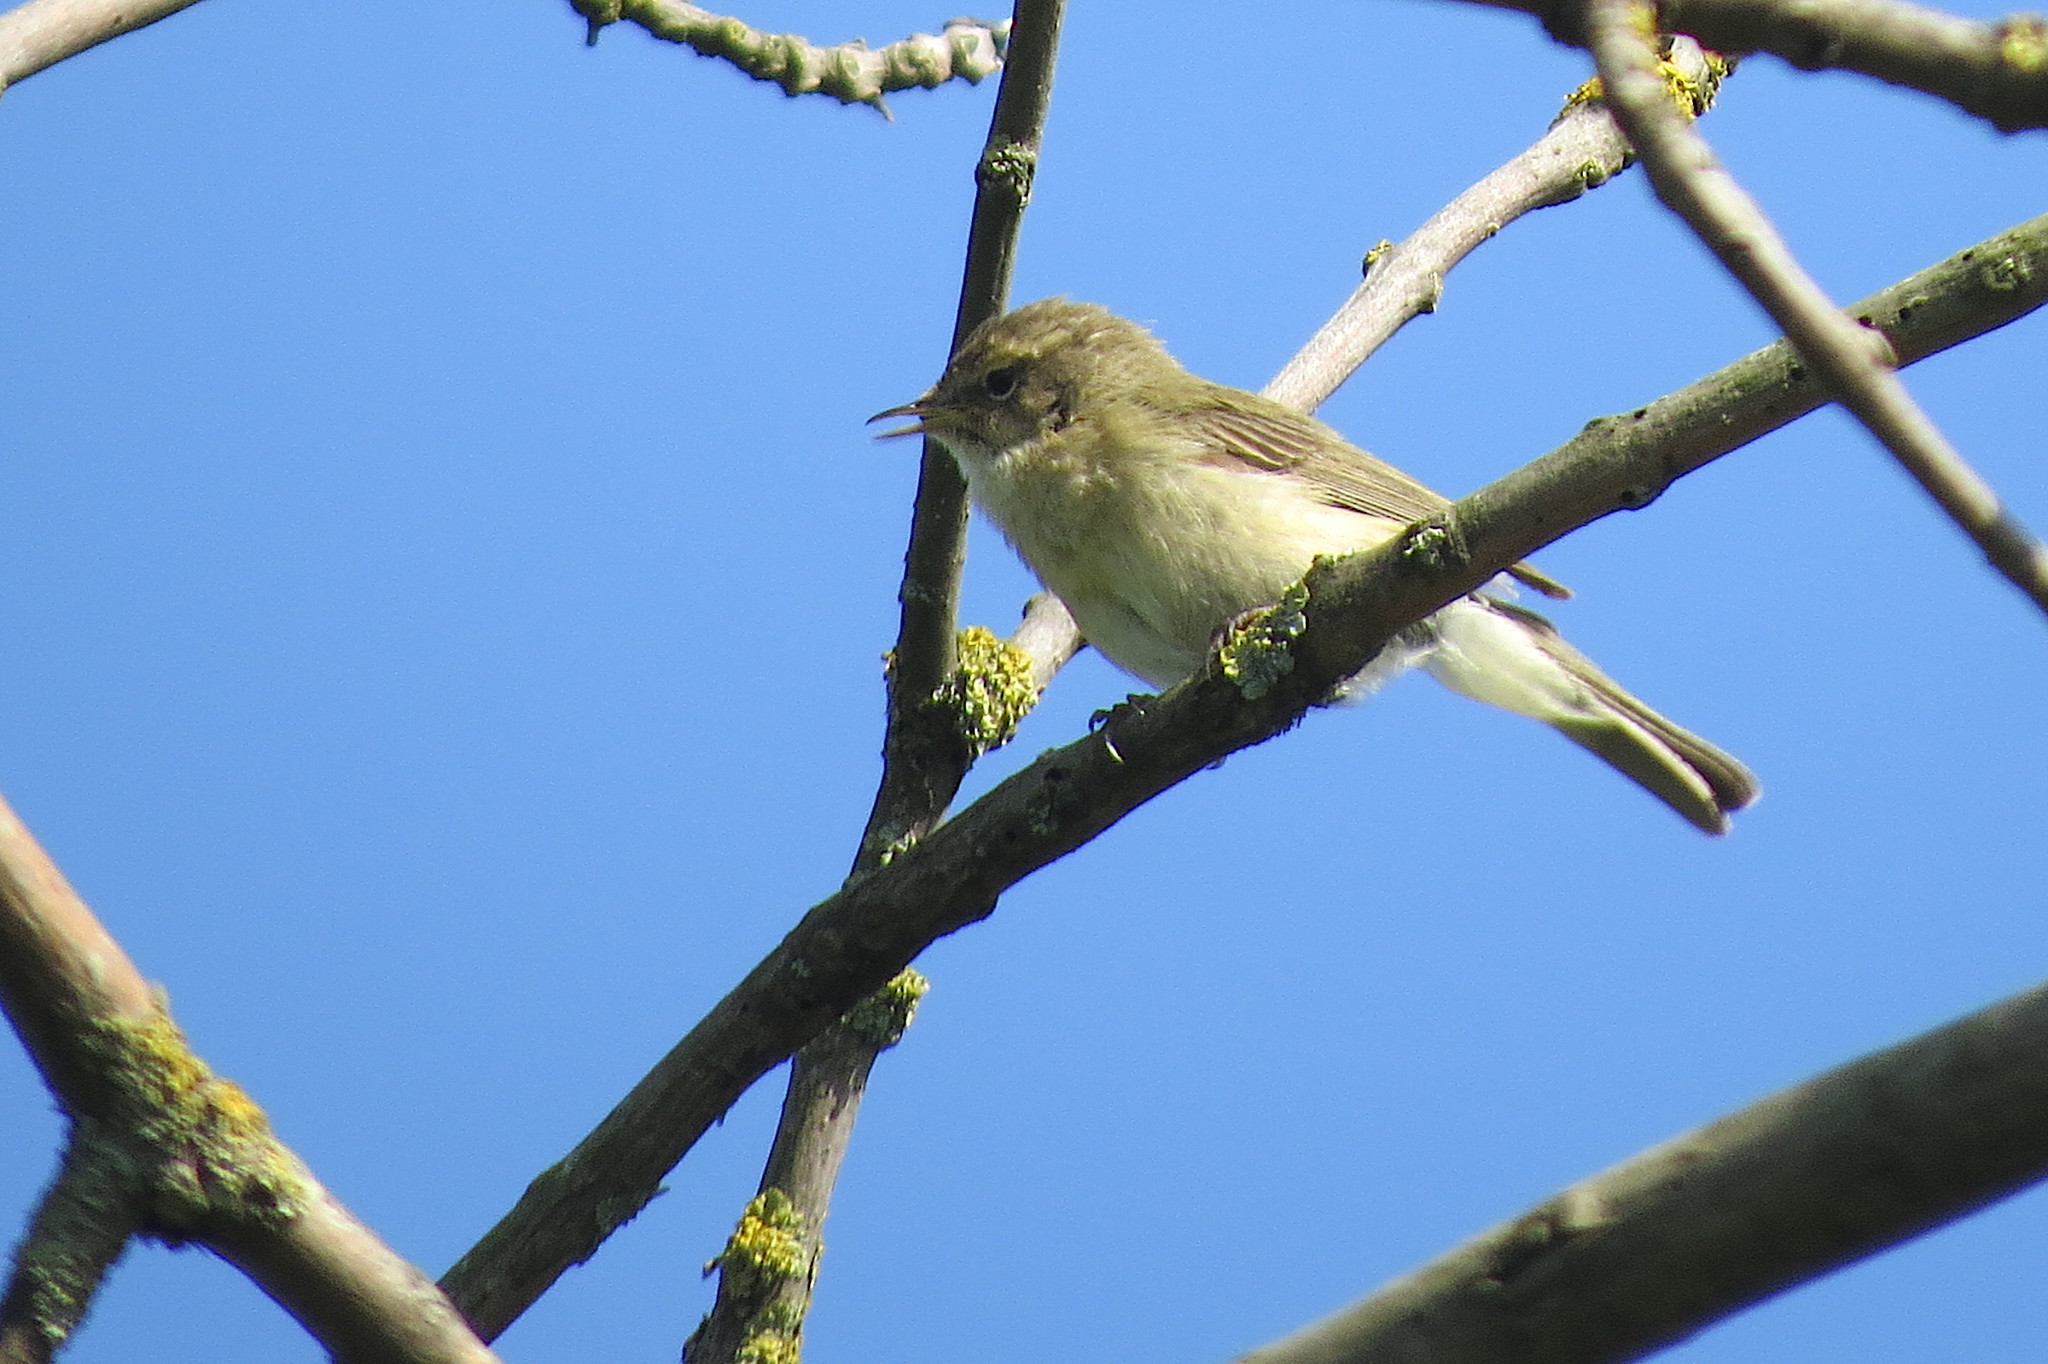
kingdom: Animalia
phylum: Chordata
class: Aves
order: Passeriformes
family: Phylloscopidae
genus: Phylloscopus
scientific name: Phylloscopus collybita
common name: Common chiffchaff
